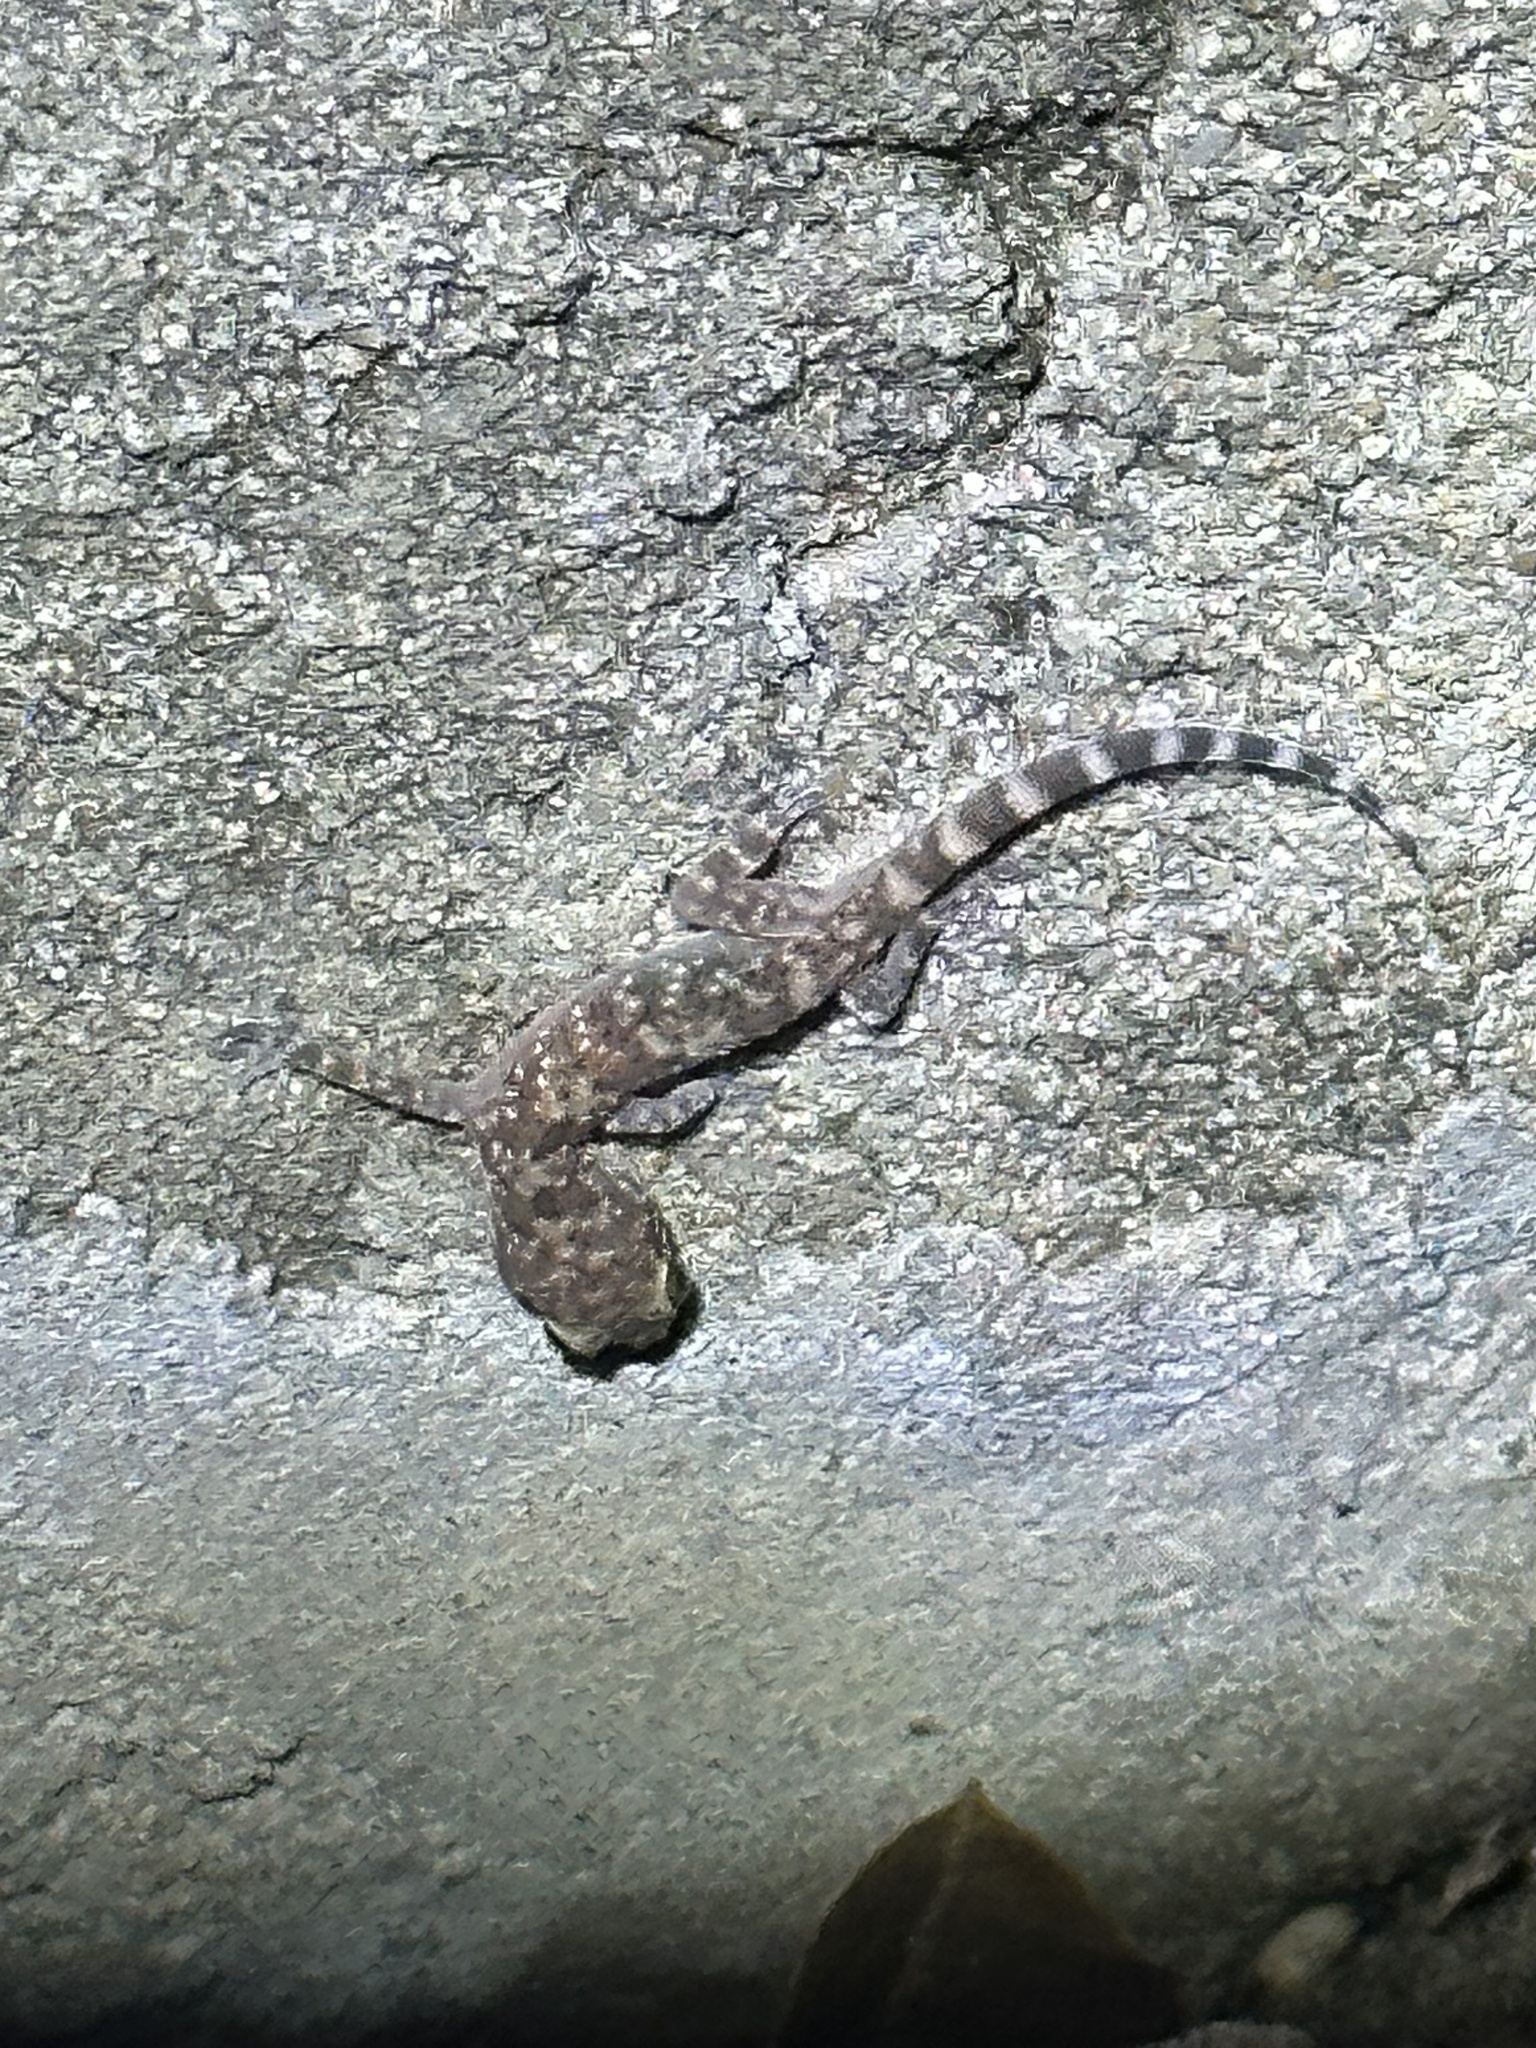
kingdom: Animalia
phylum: Chordata
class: Squamata
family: Gekkonidae
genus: Hemidactylus
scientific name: Hemidactylus turcicus
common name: Turkish gecko
